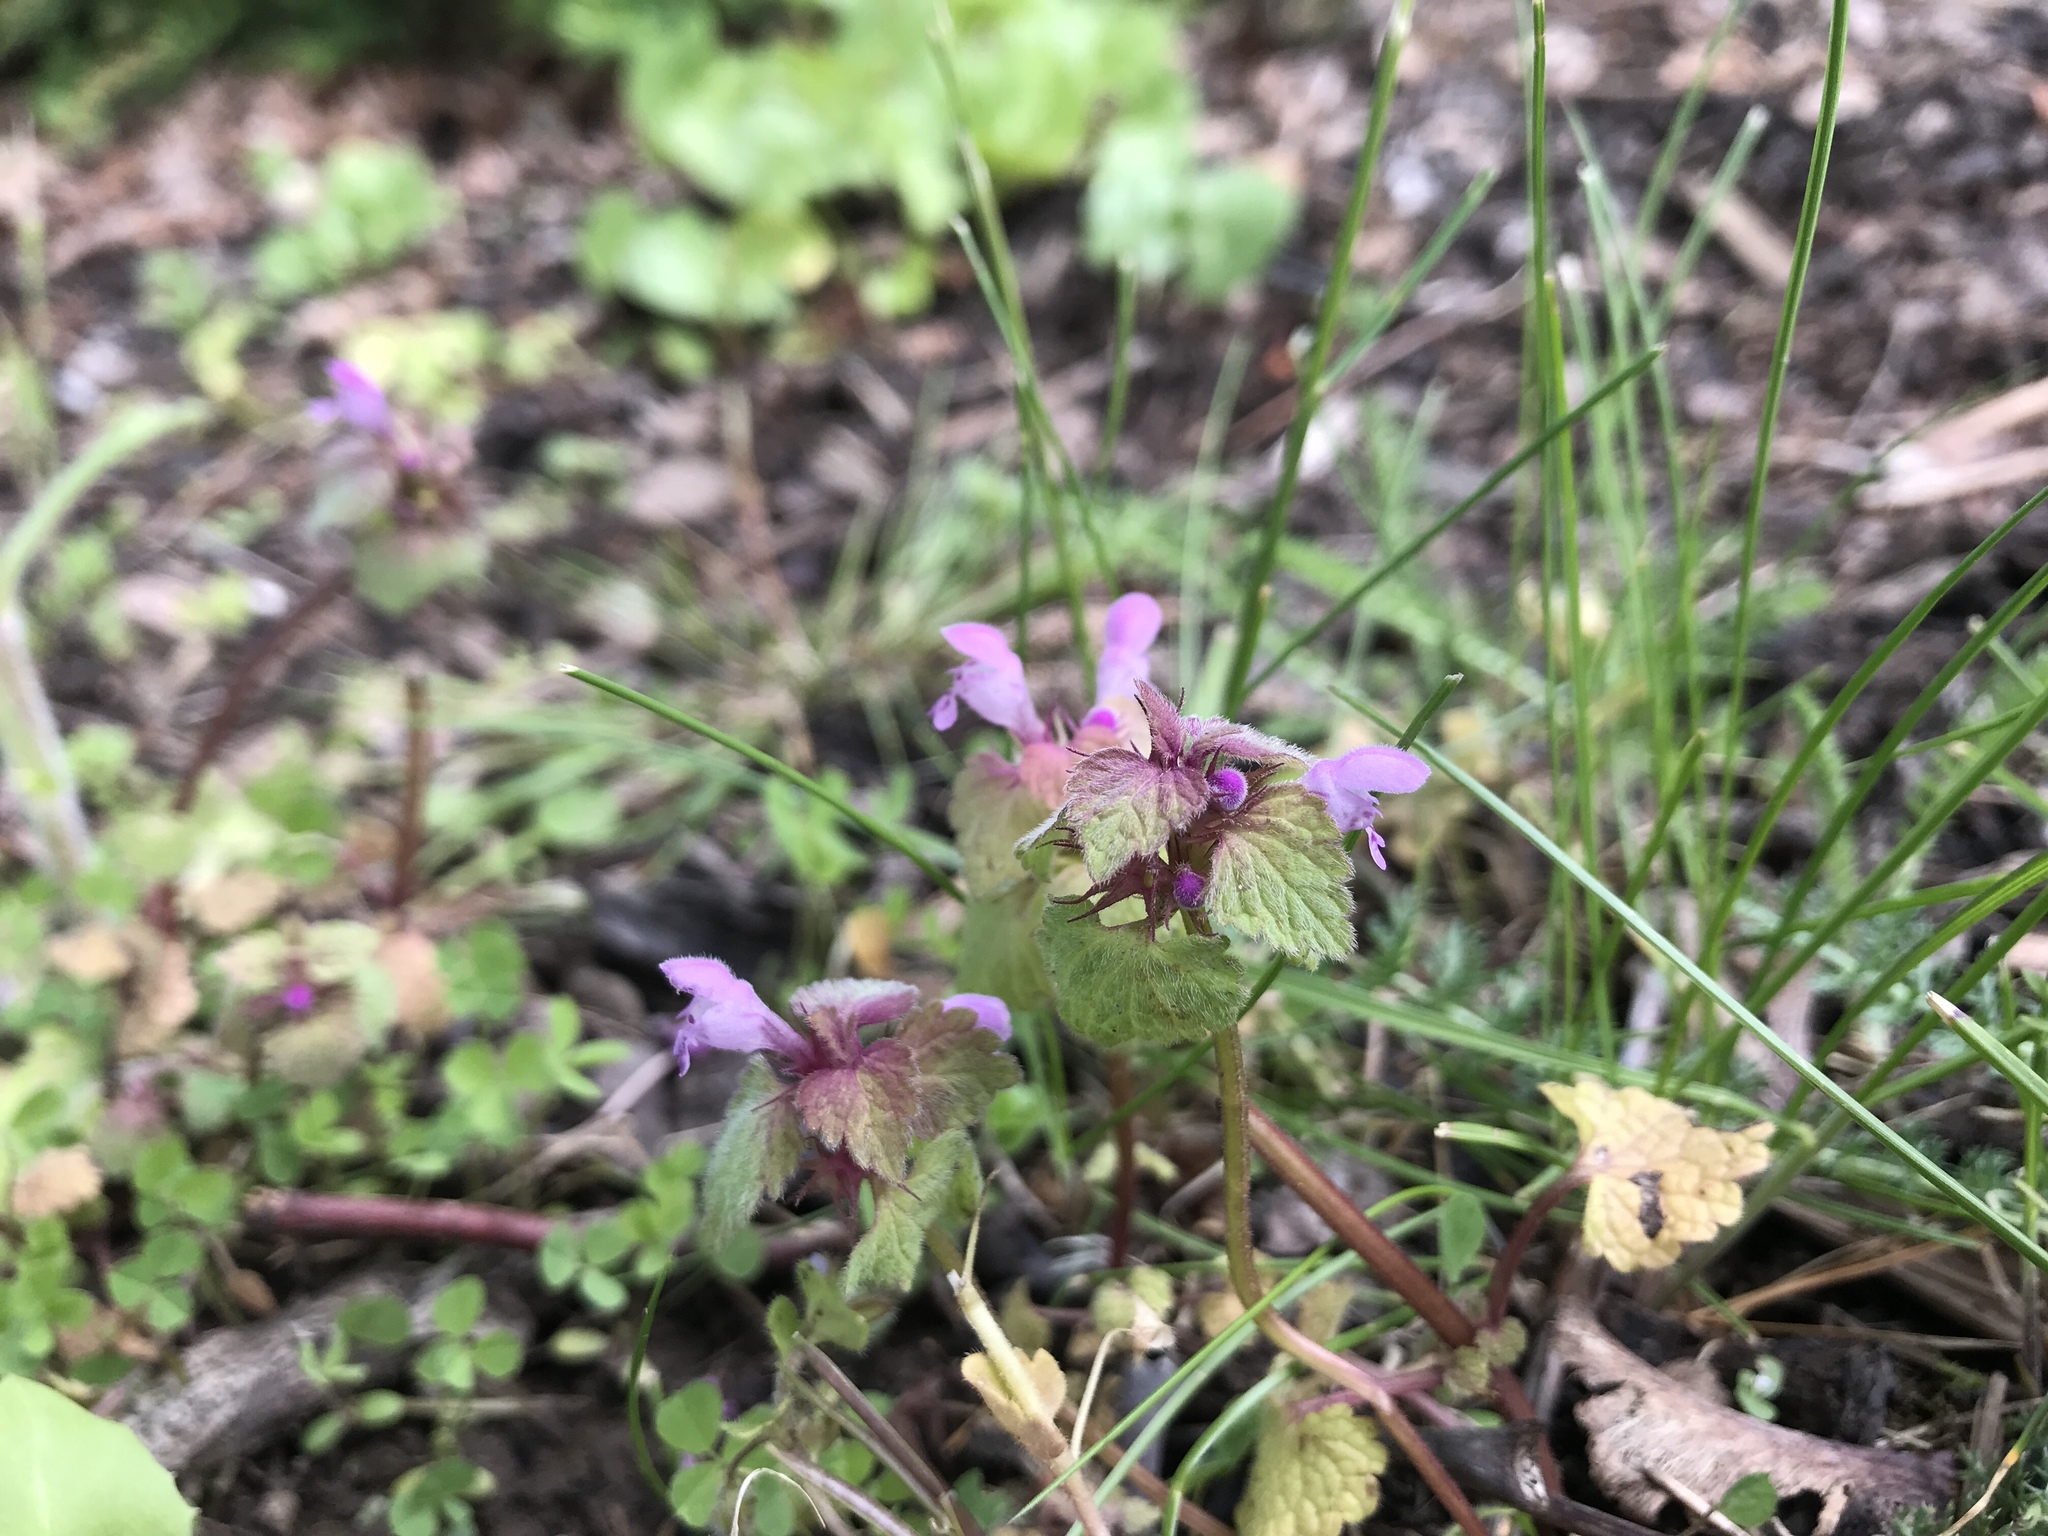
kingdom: Plantae
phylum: Tracheophyta
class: Magnoliopsida
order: Lamiales
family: Lamiaceae
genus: Lamium
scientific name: Lamium purpureum
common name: Red dead-nettle
